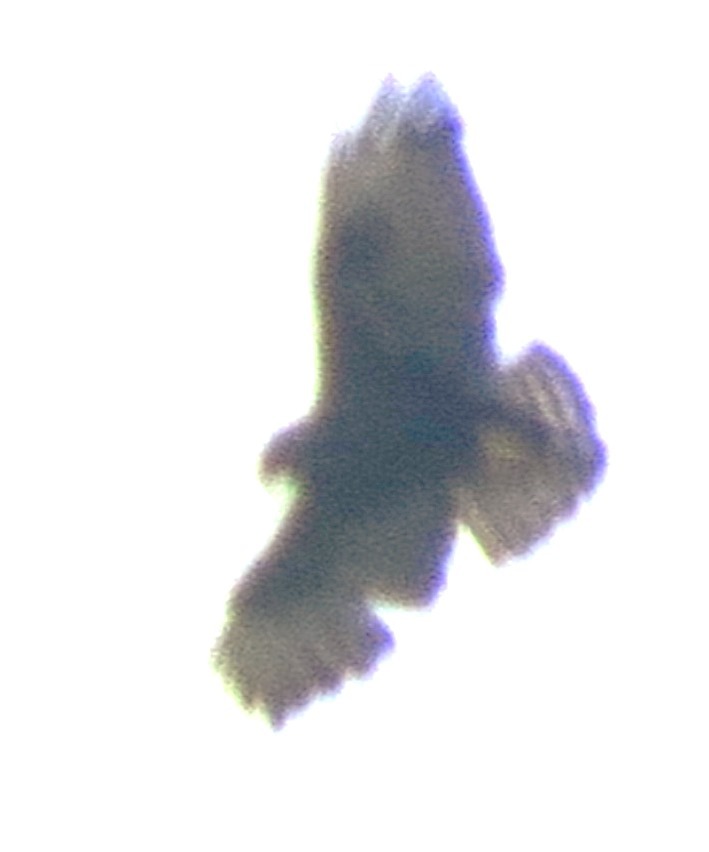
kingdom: Animalia
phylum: Chordata
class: Aves
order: Accipitriformes
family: Accipitridae
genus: Buteo
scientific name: Buteo brachyurus
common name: Short-tailed hawk
